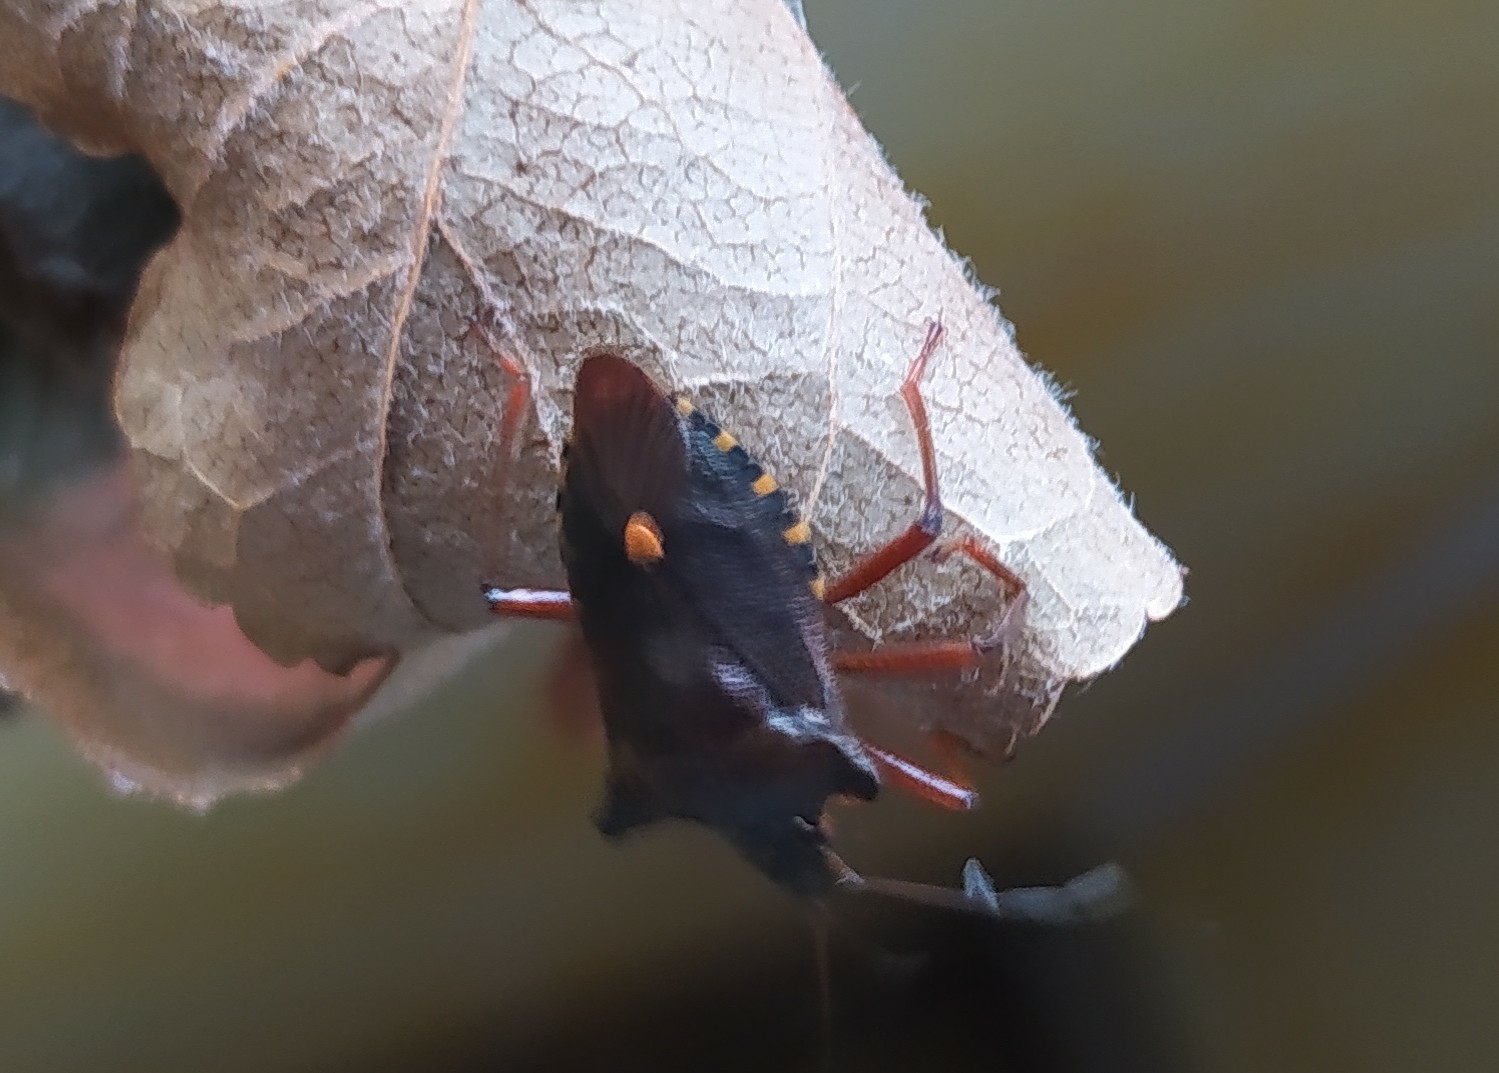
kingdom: Animalia
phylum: Arthropoda
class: Insecta
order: Hemiptera
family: Pentatomidae
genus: Pentatoma
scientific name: Pentatoma rufipes
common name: Forest bug
